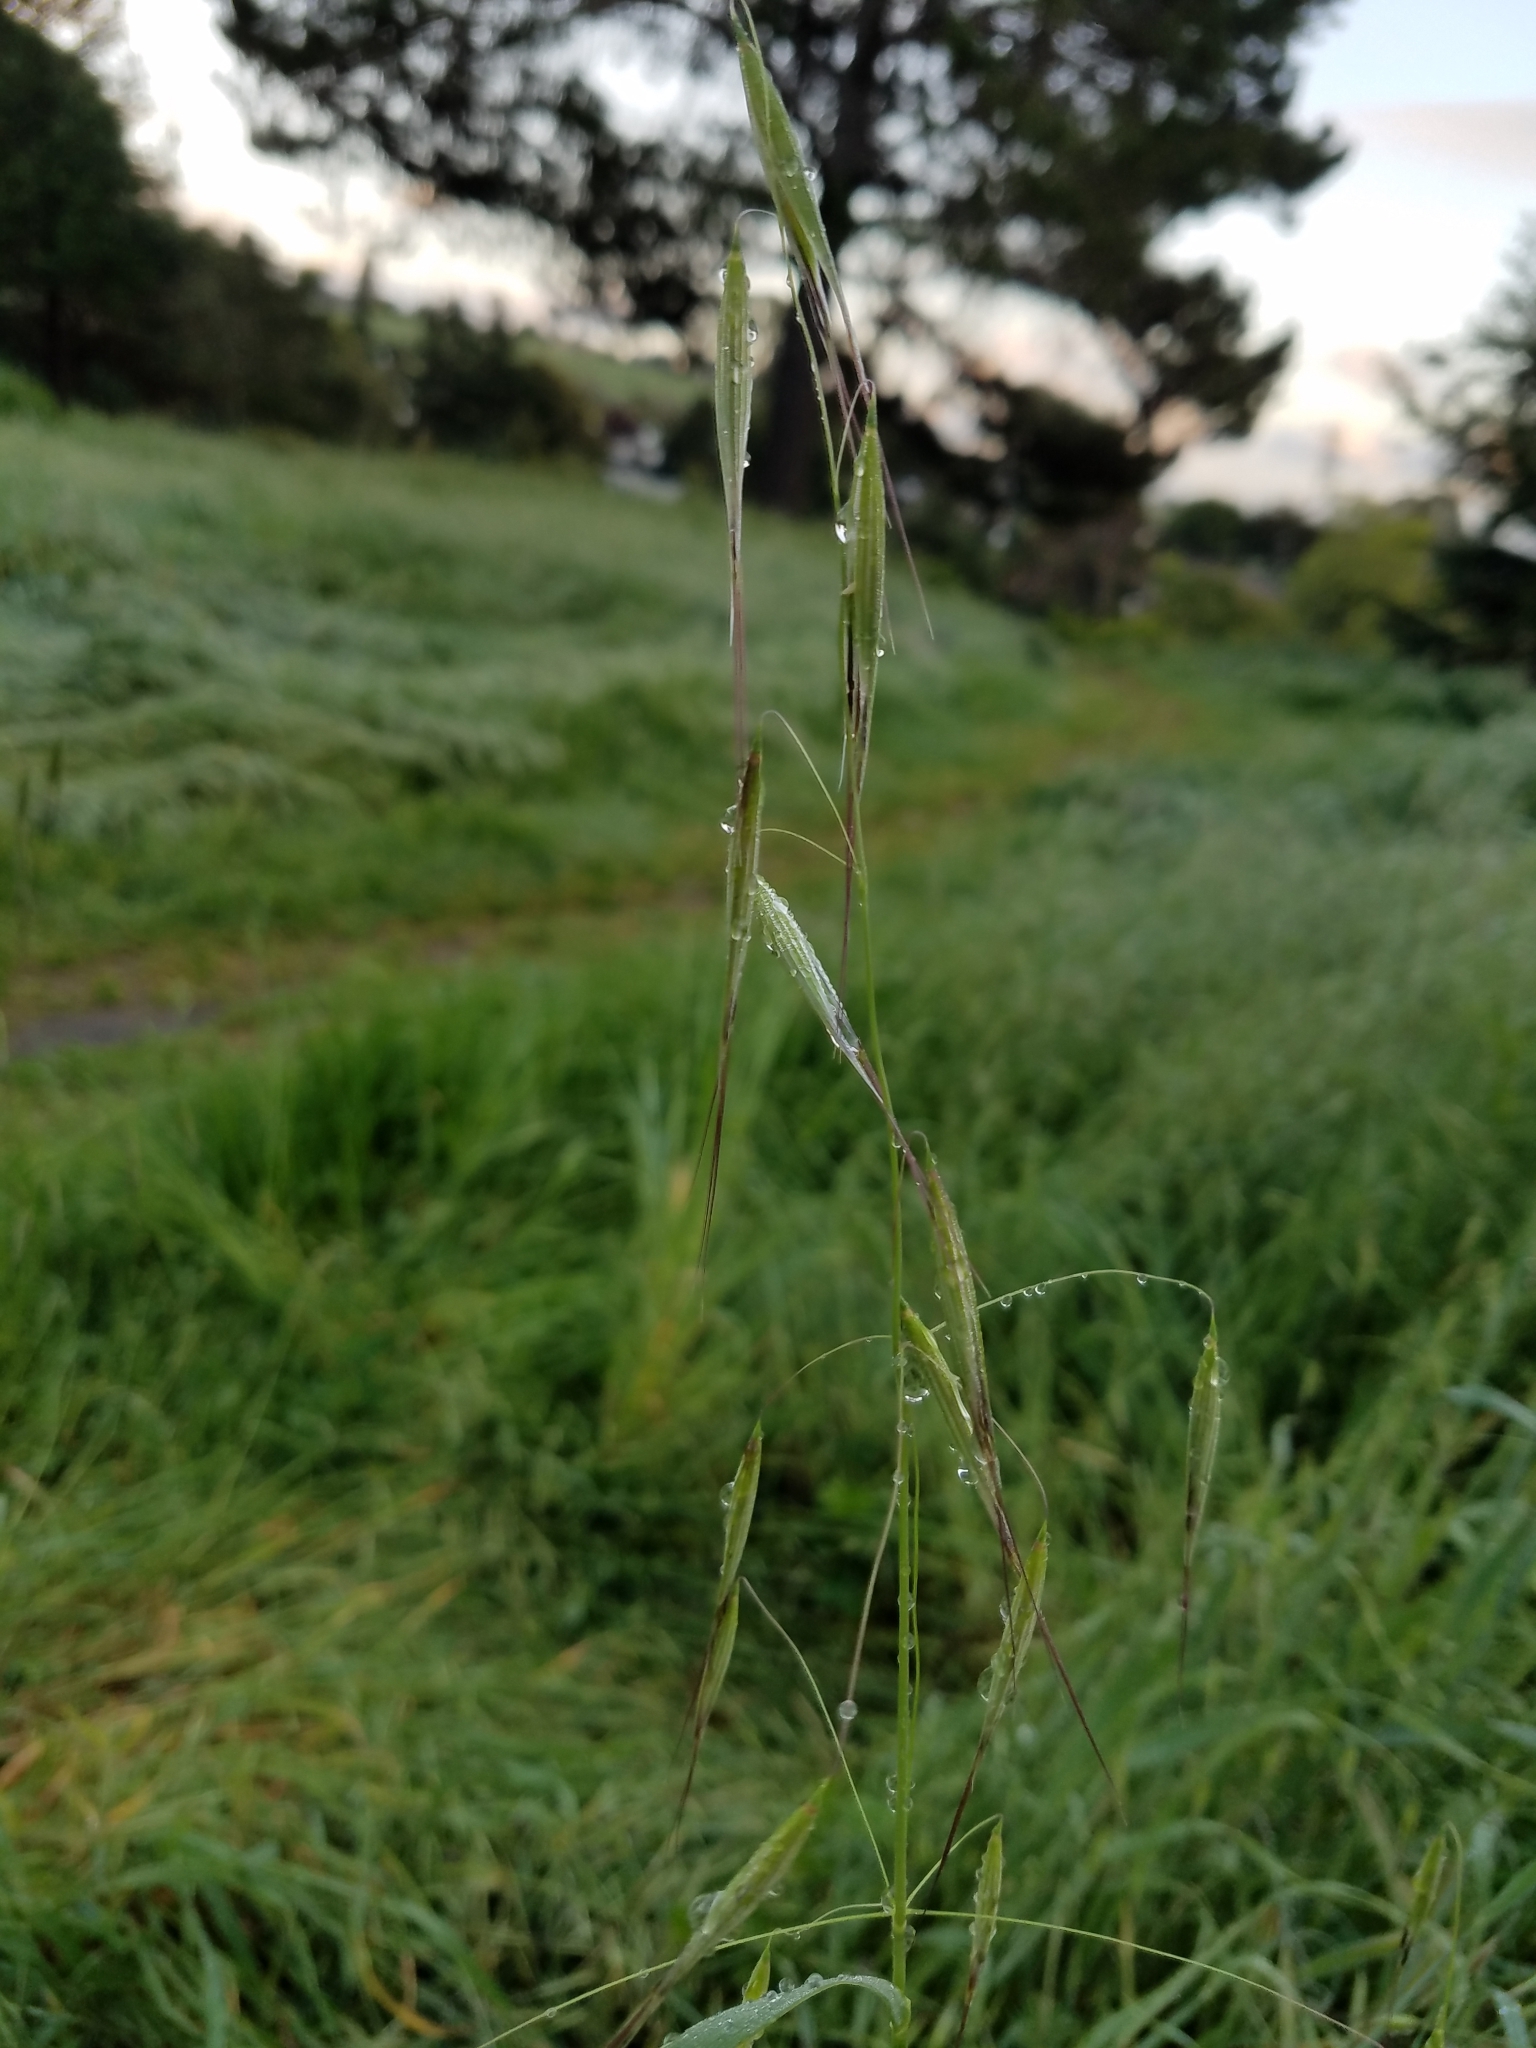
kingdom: Plantae
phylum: Tracheophyta
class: Liliopsida
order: Poales
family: Poaceae
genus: Avena
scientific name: Avena barbata
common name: Slender oat
